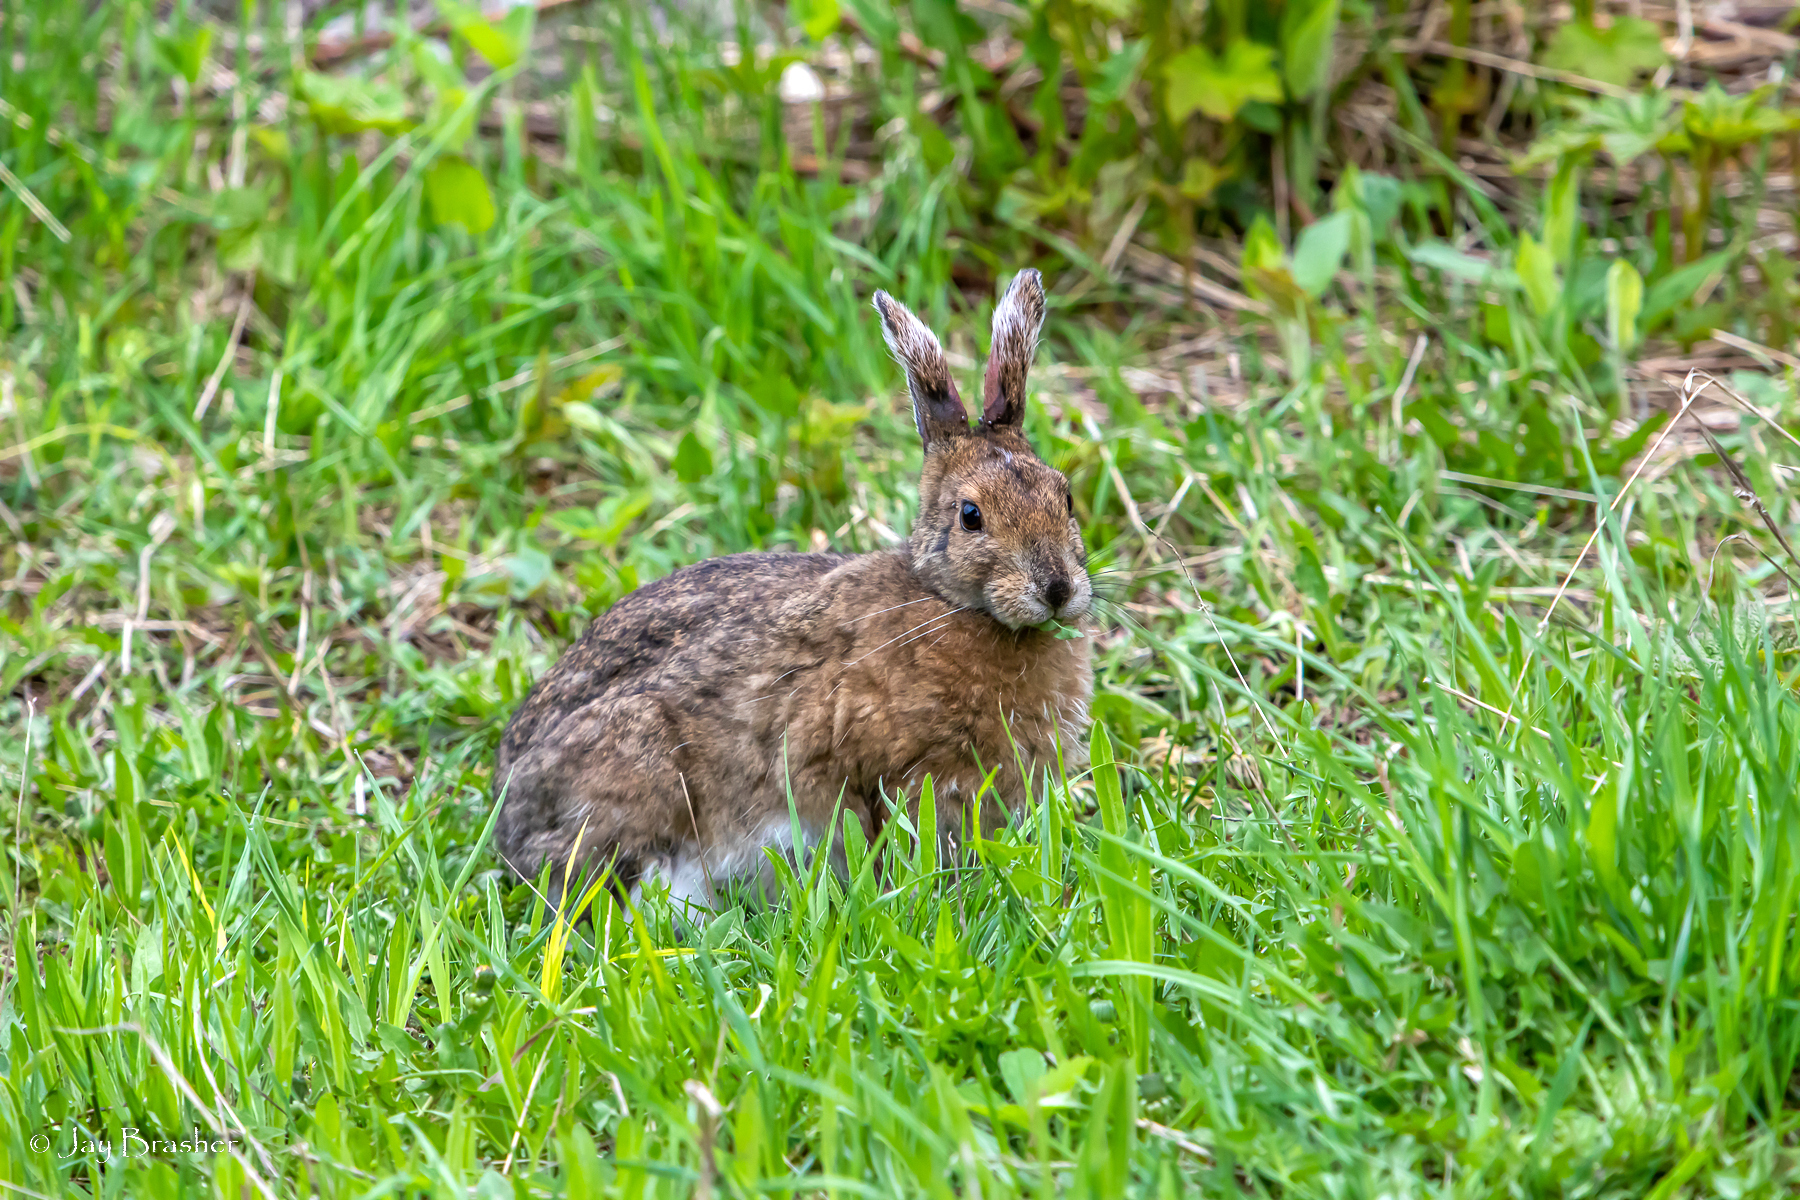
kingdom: Animalia
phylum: Chordata
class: Mammalia
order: Lagomorpha
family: Leporidae
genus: Lepus
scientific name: Lepus americanus
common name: Snowshoe hare
